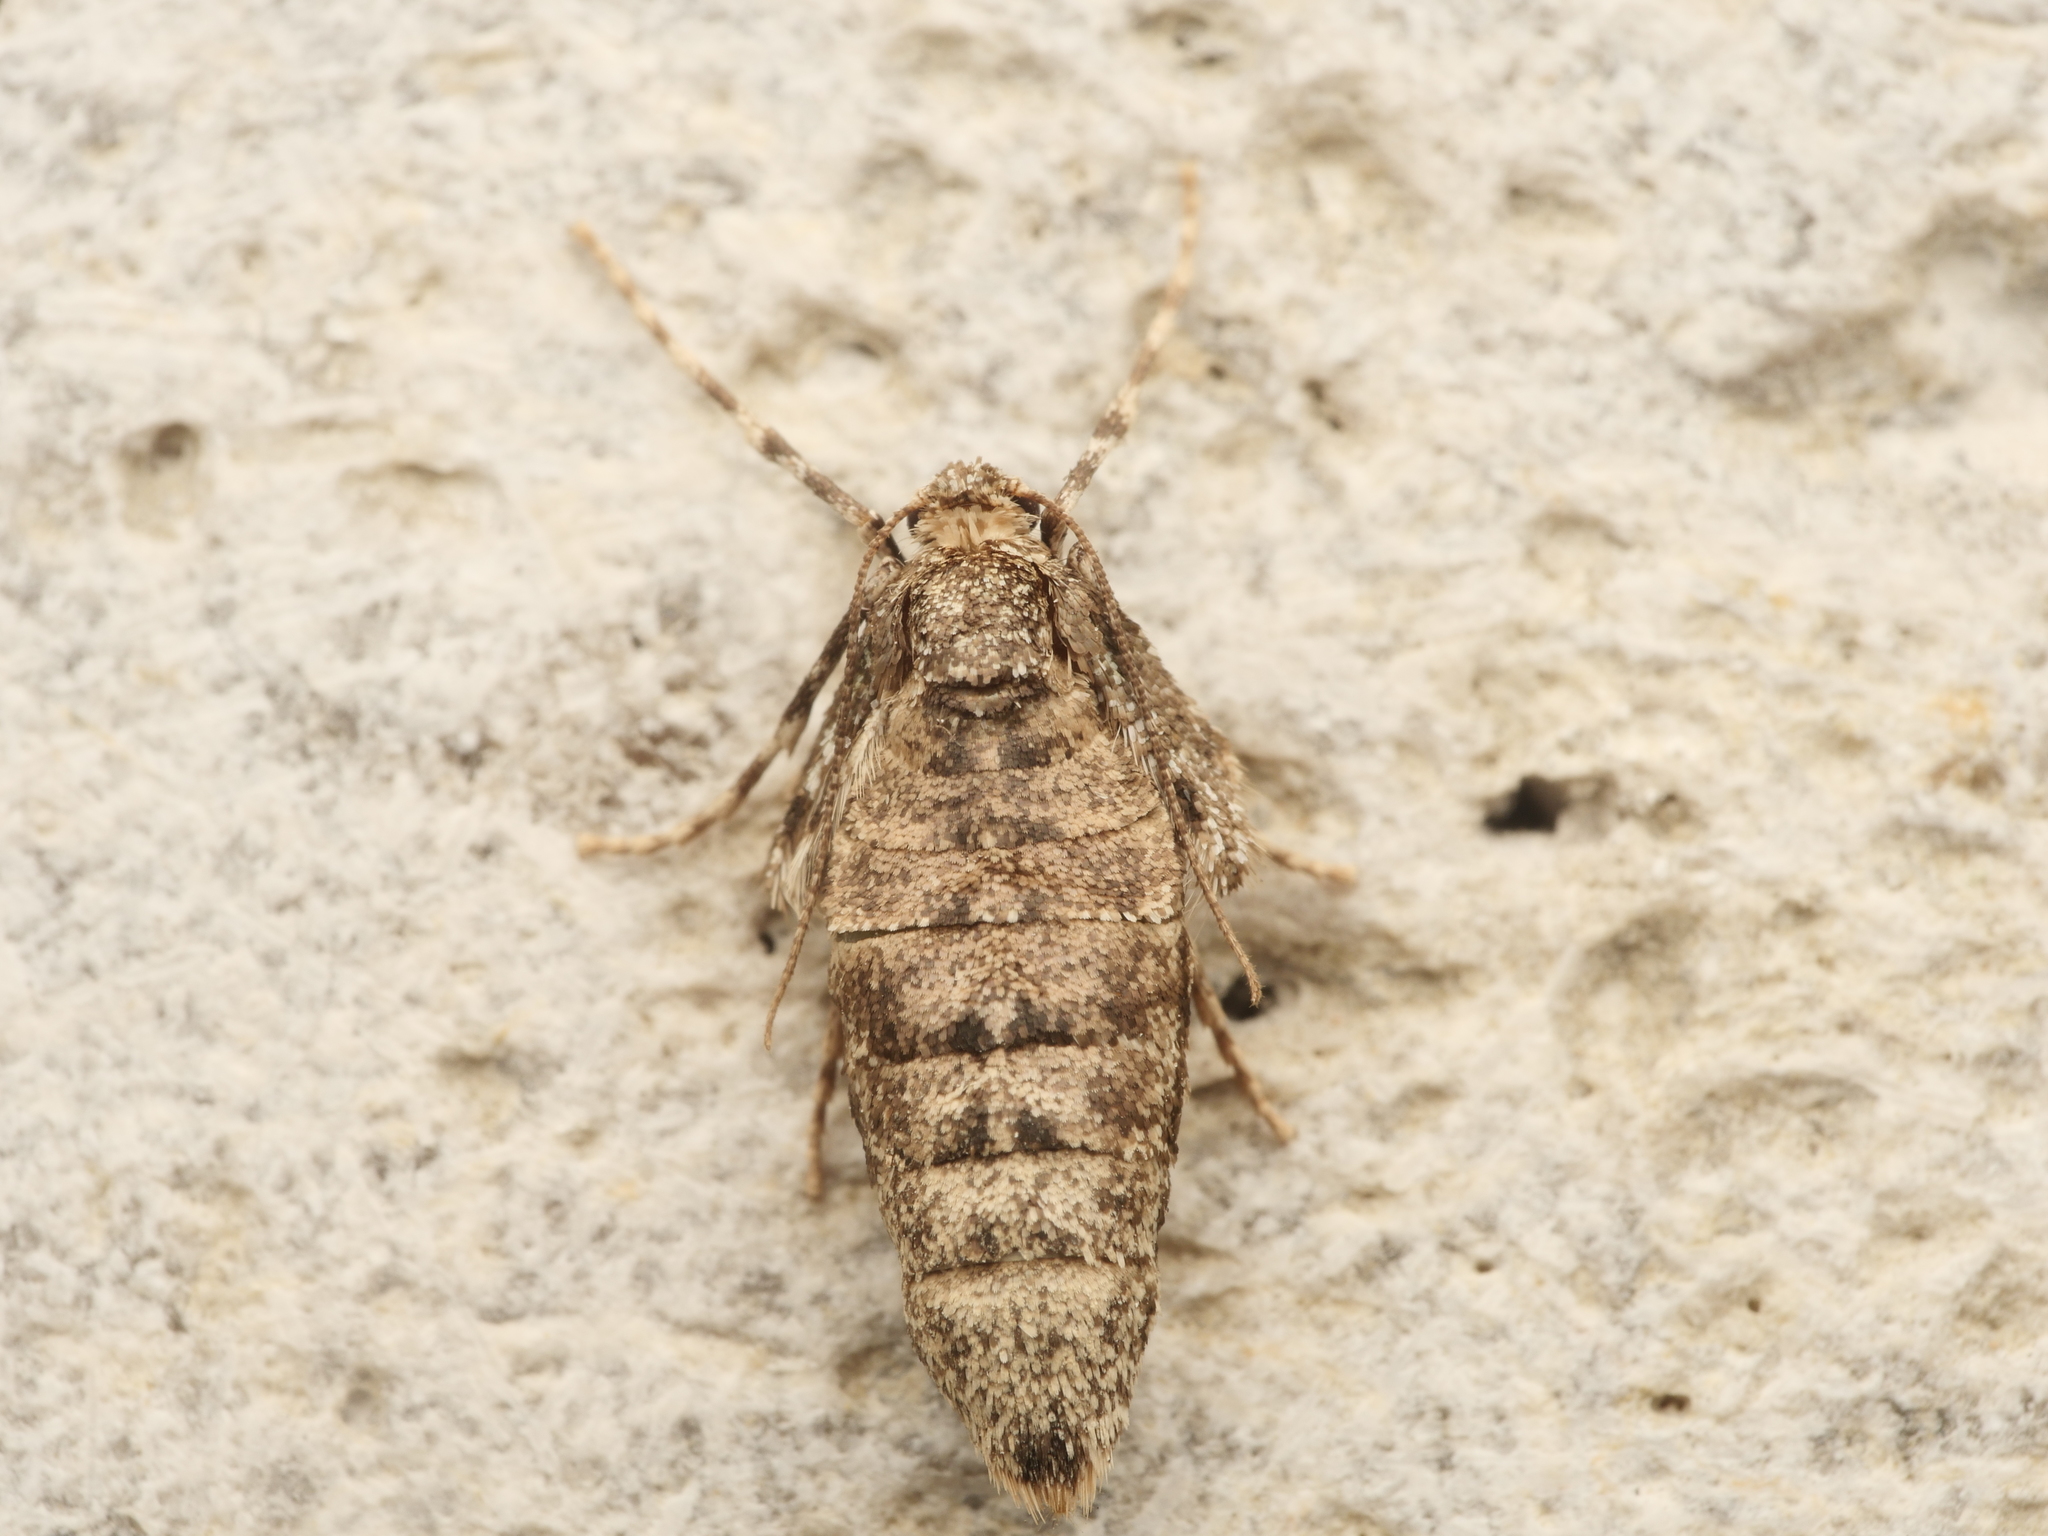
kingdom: Animalia
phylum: Arthropoda
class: Insecta
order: Lepidoptera
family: Geometridae
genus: Operophtera
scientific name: Operophtera brumata
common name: Winter moth
